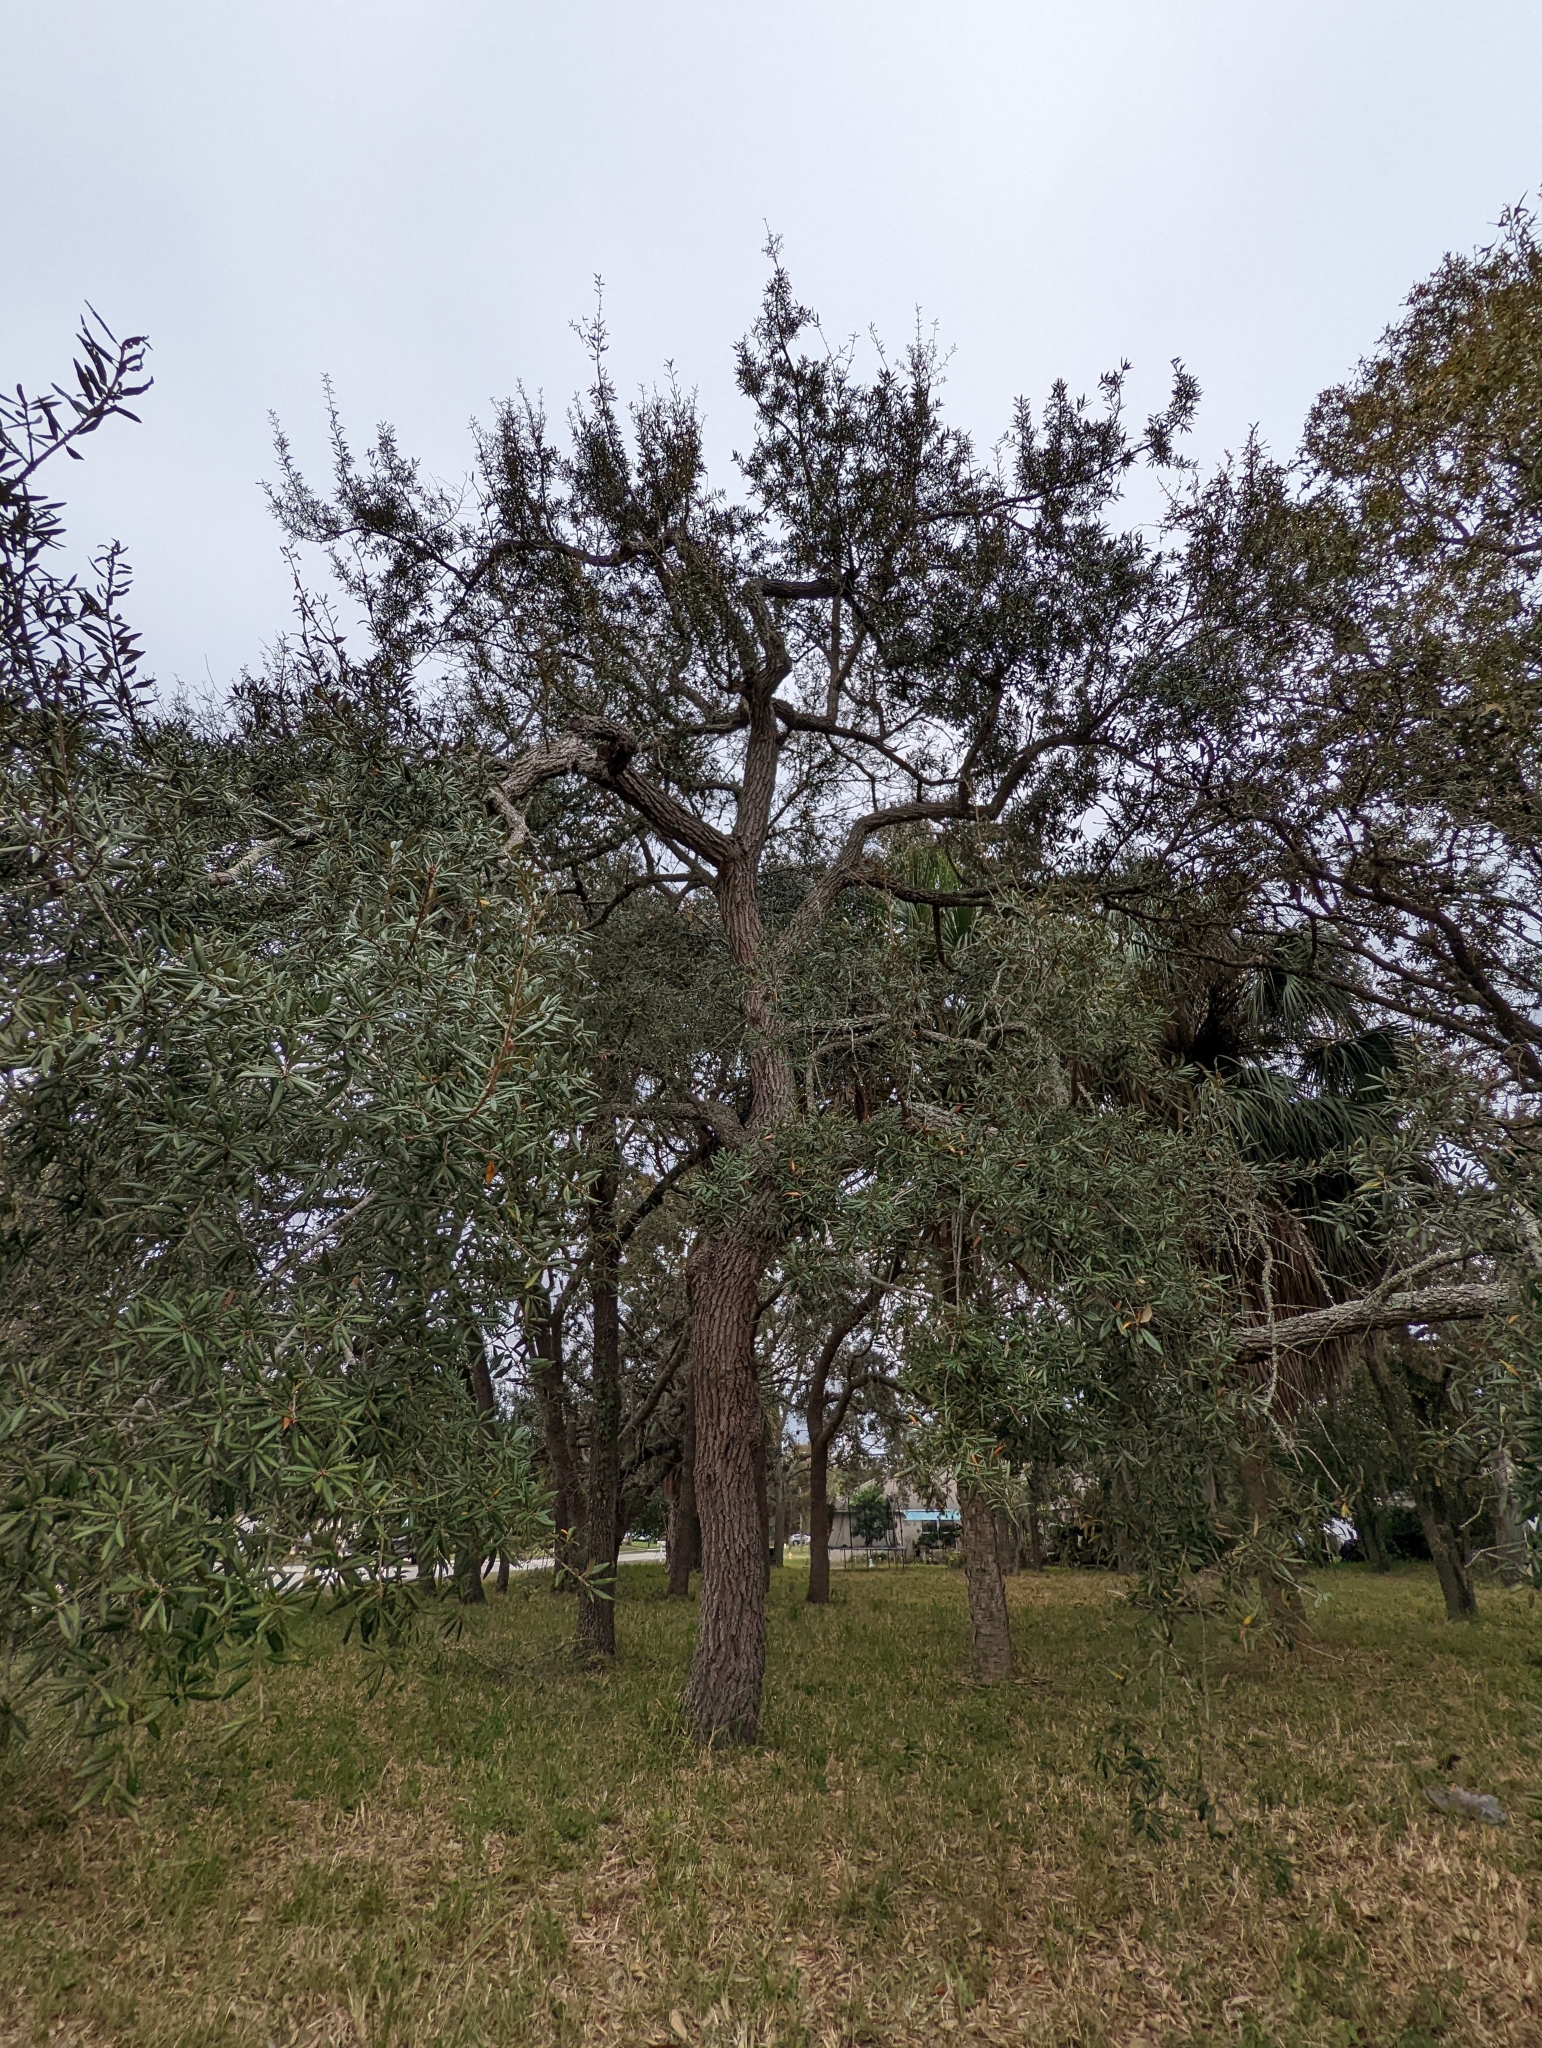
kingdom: Plantae
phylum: Tracheophyta
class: Magnoliopsida
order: Fagales
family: Fagaceae
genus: Quercus
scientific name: Quercus geminata
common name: Sand live oak
